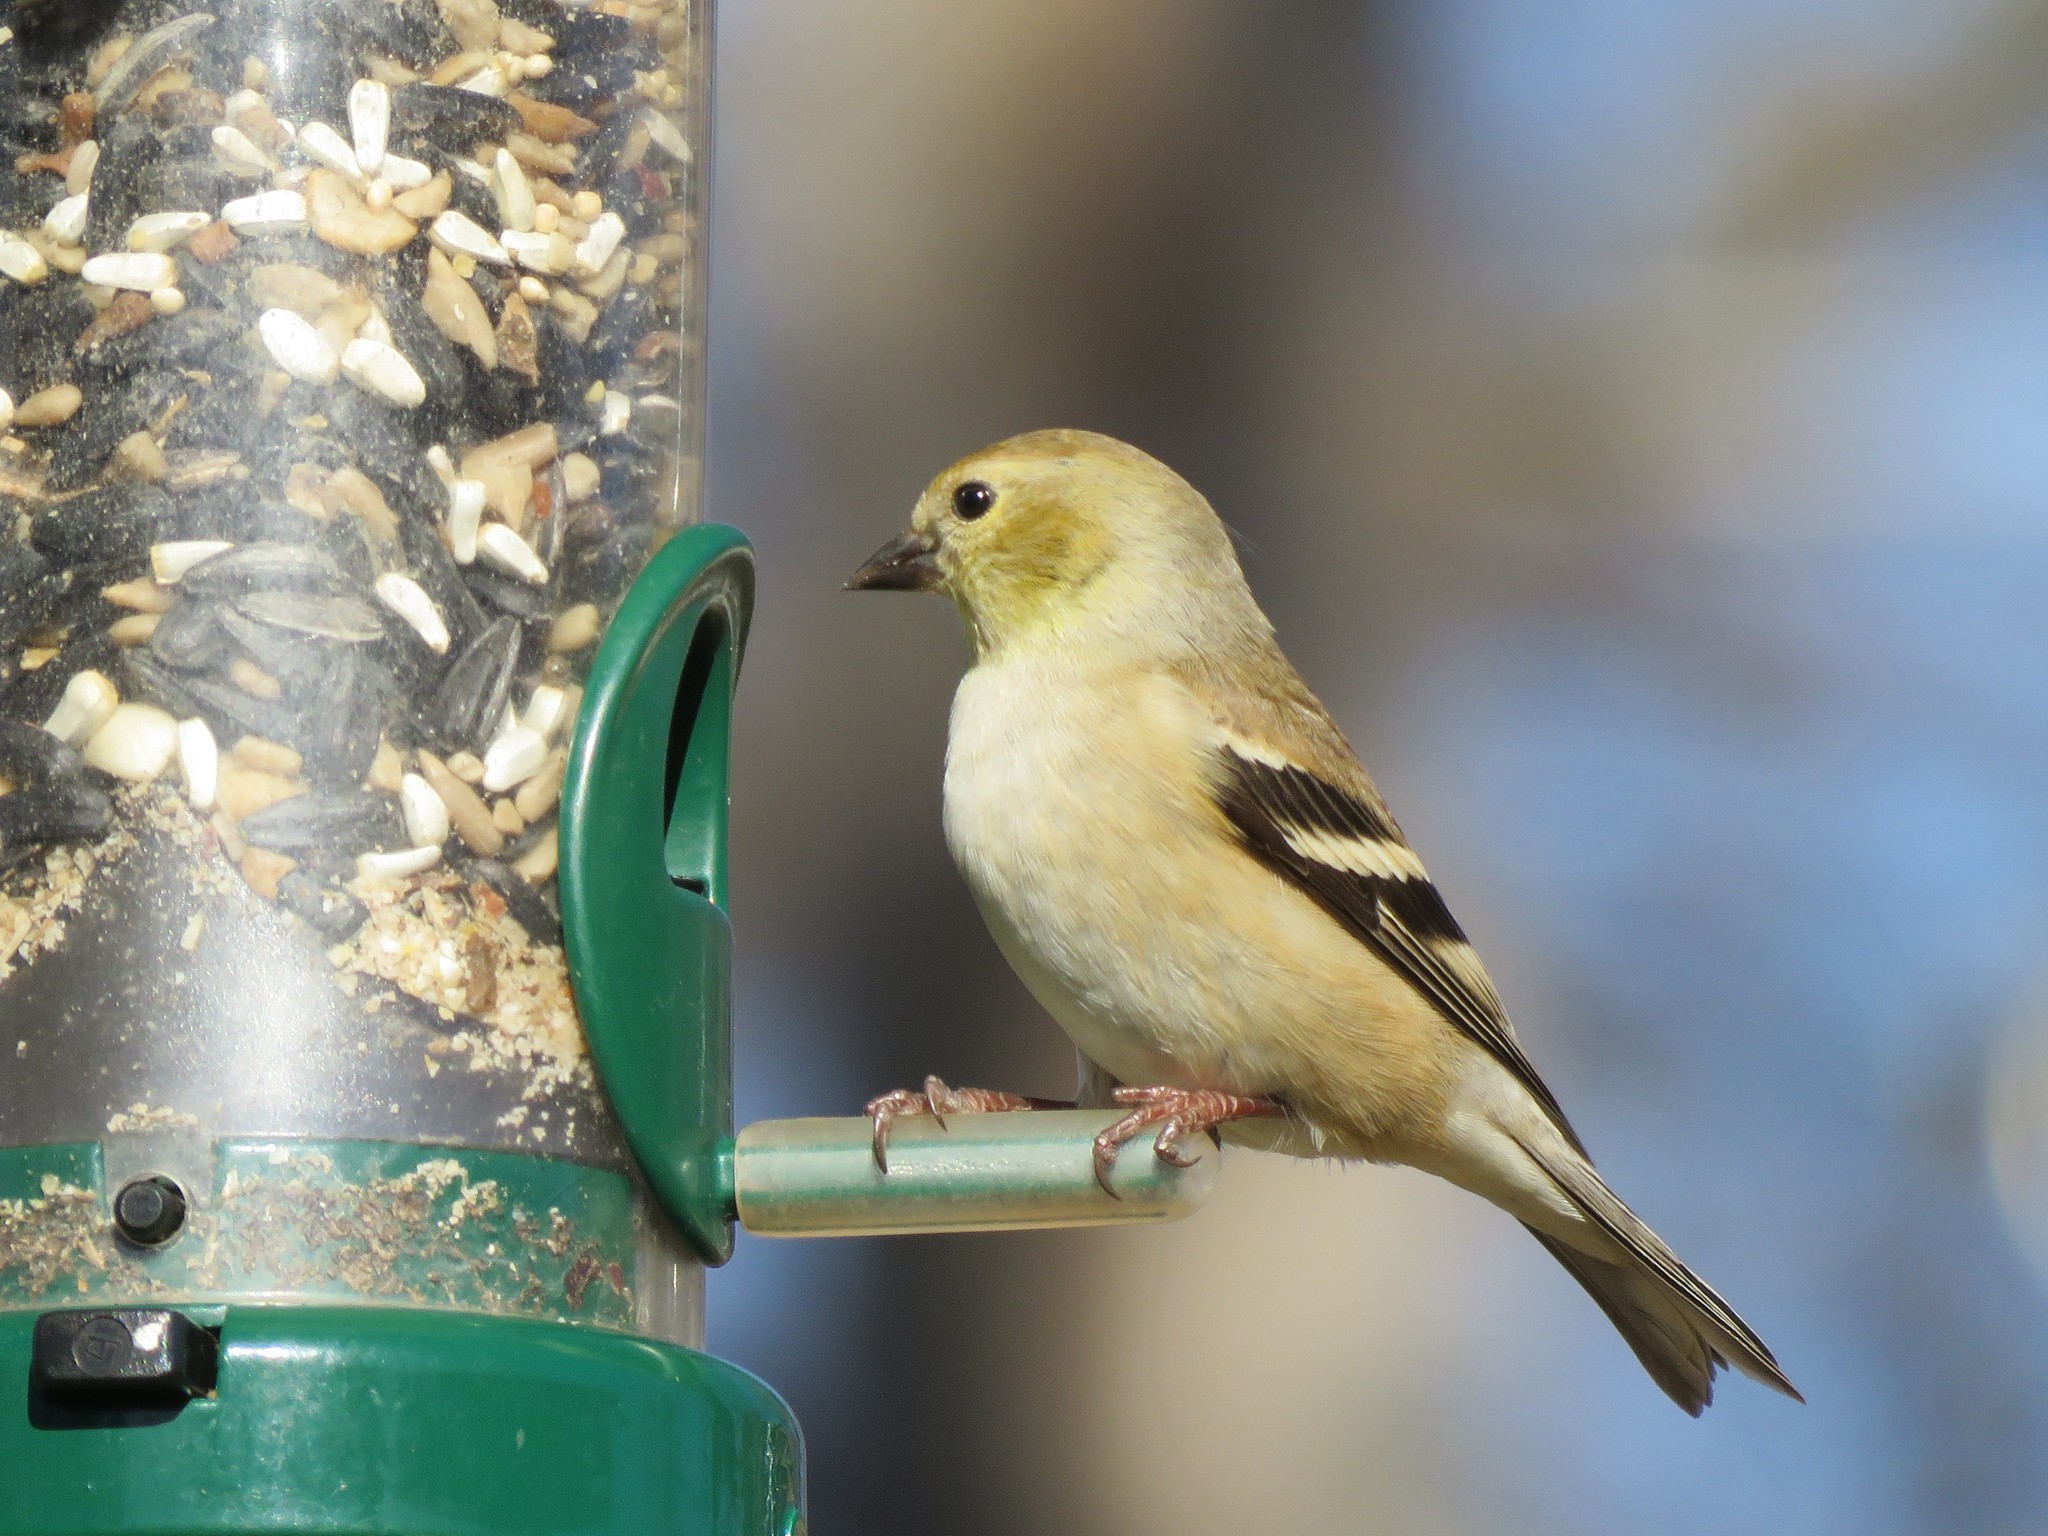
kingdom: Animalia
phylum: Chordata
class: Aves
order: Passeriformes
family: Fringillidae
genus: Spinus
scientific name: Spinus tristis
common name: American goldfinch
